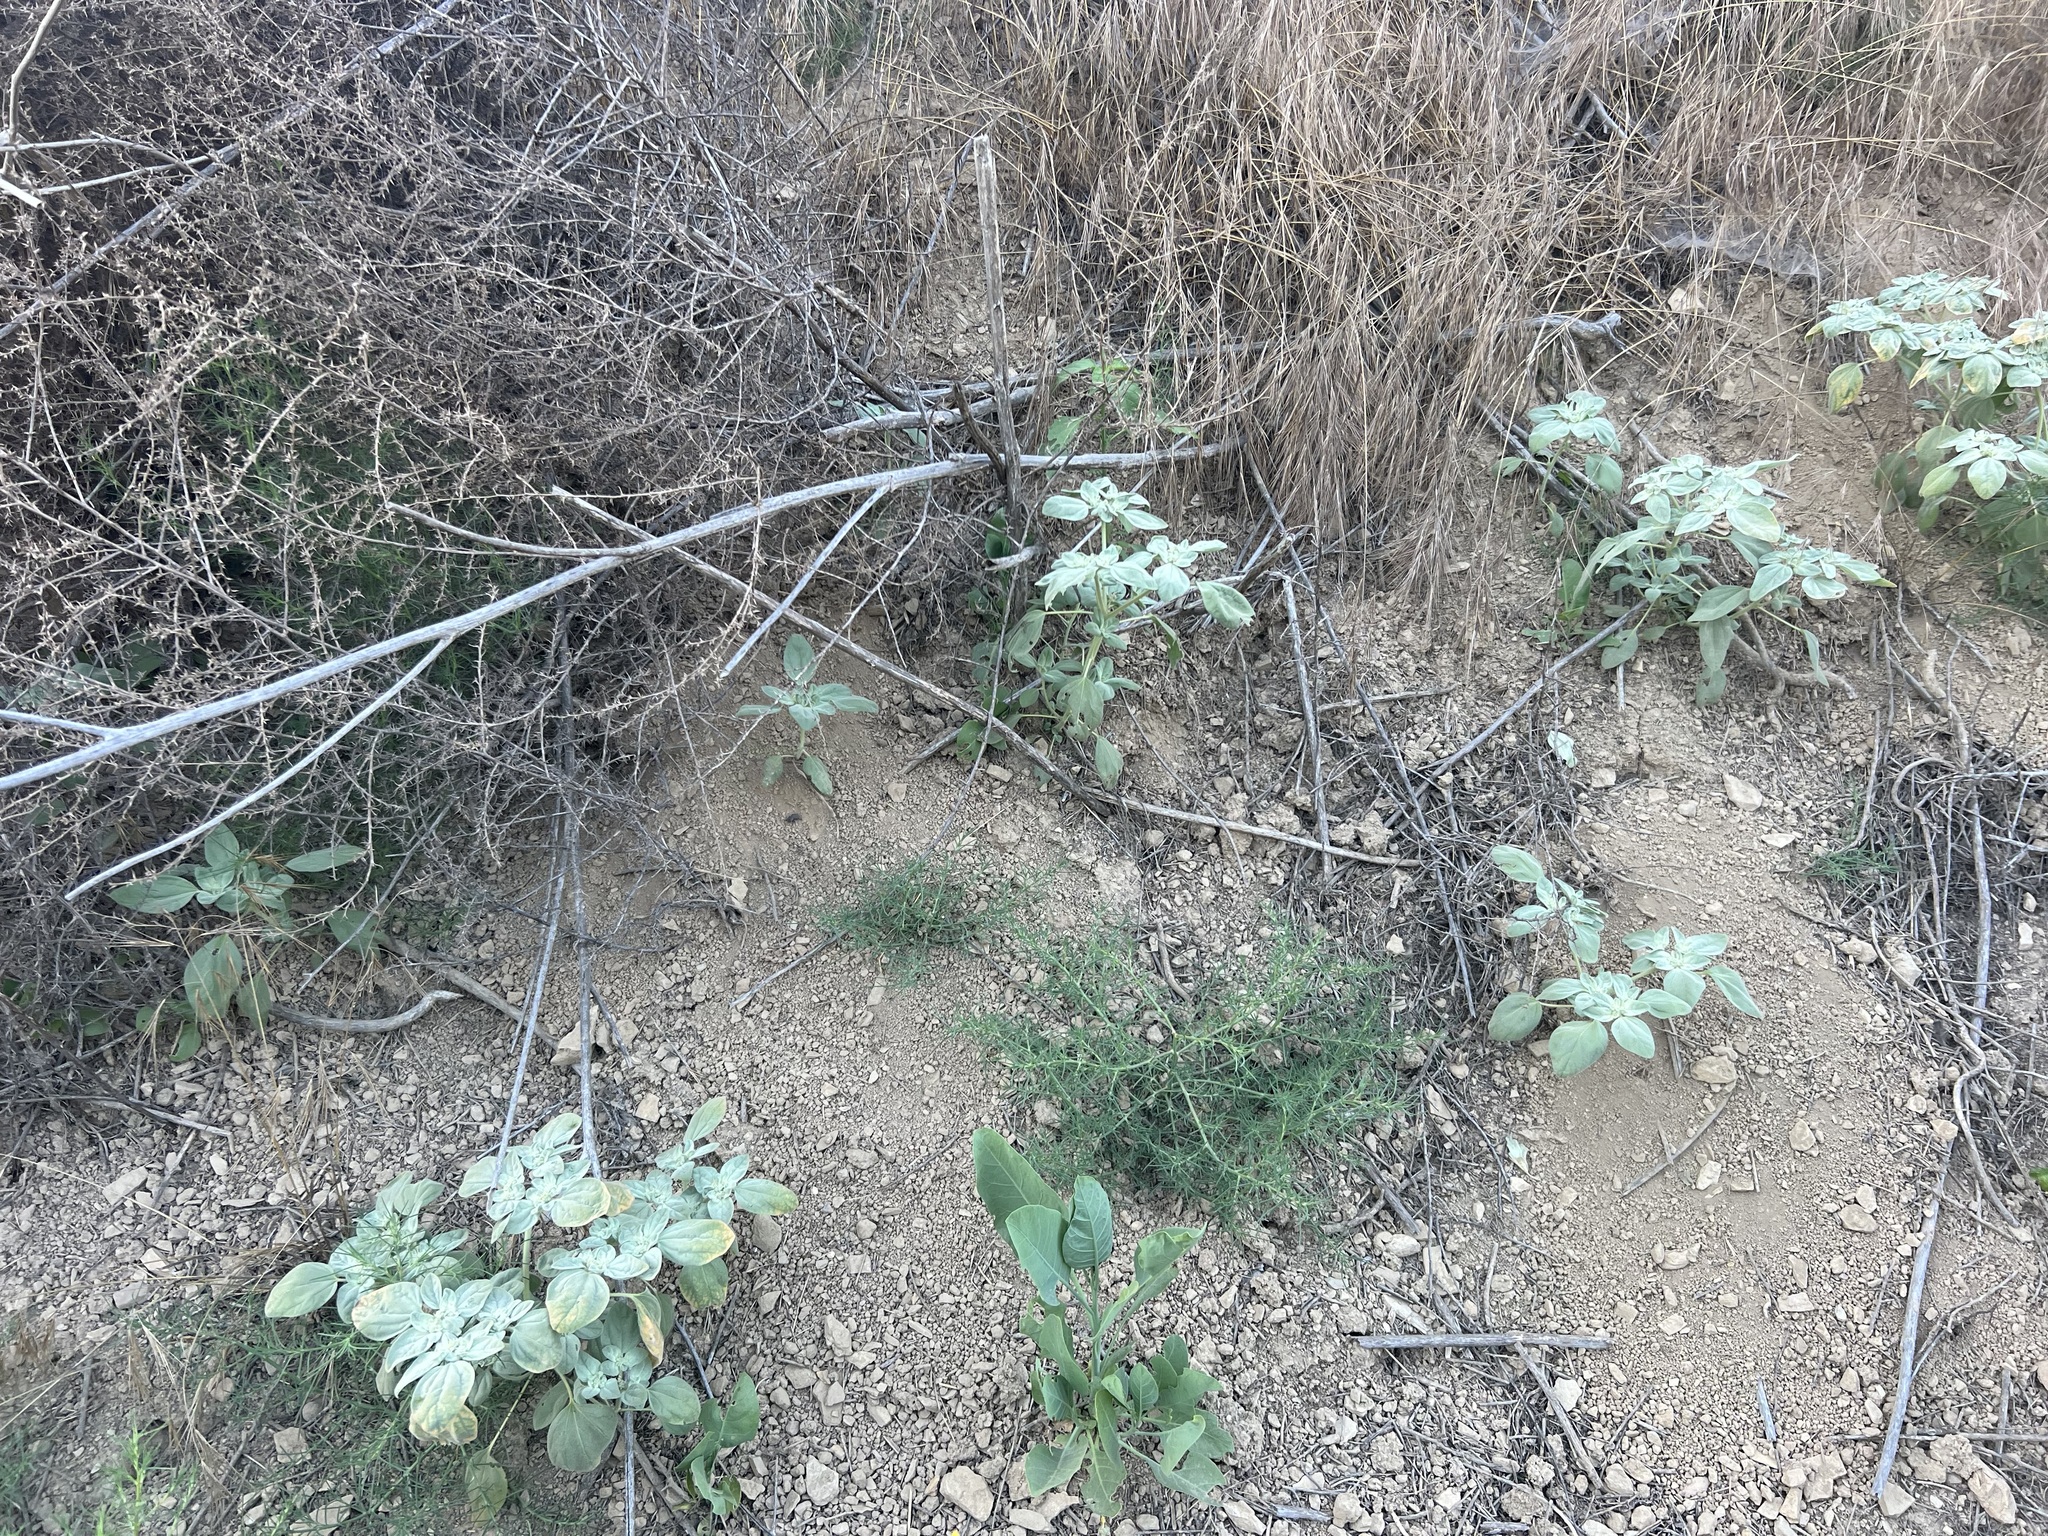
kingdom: Plantae
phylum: Tracheophyta
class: Magnoliopsida
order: Malpighiales
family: Euphorbiaceae
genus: Croton
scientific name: Croton setiger
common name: Dove weed
